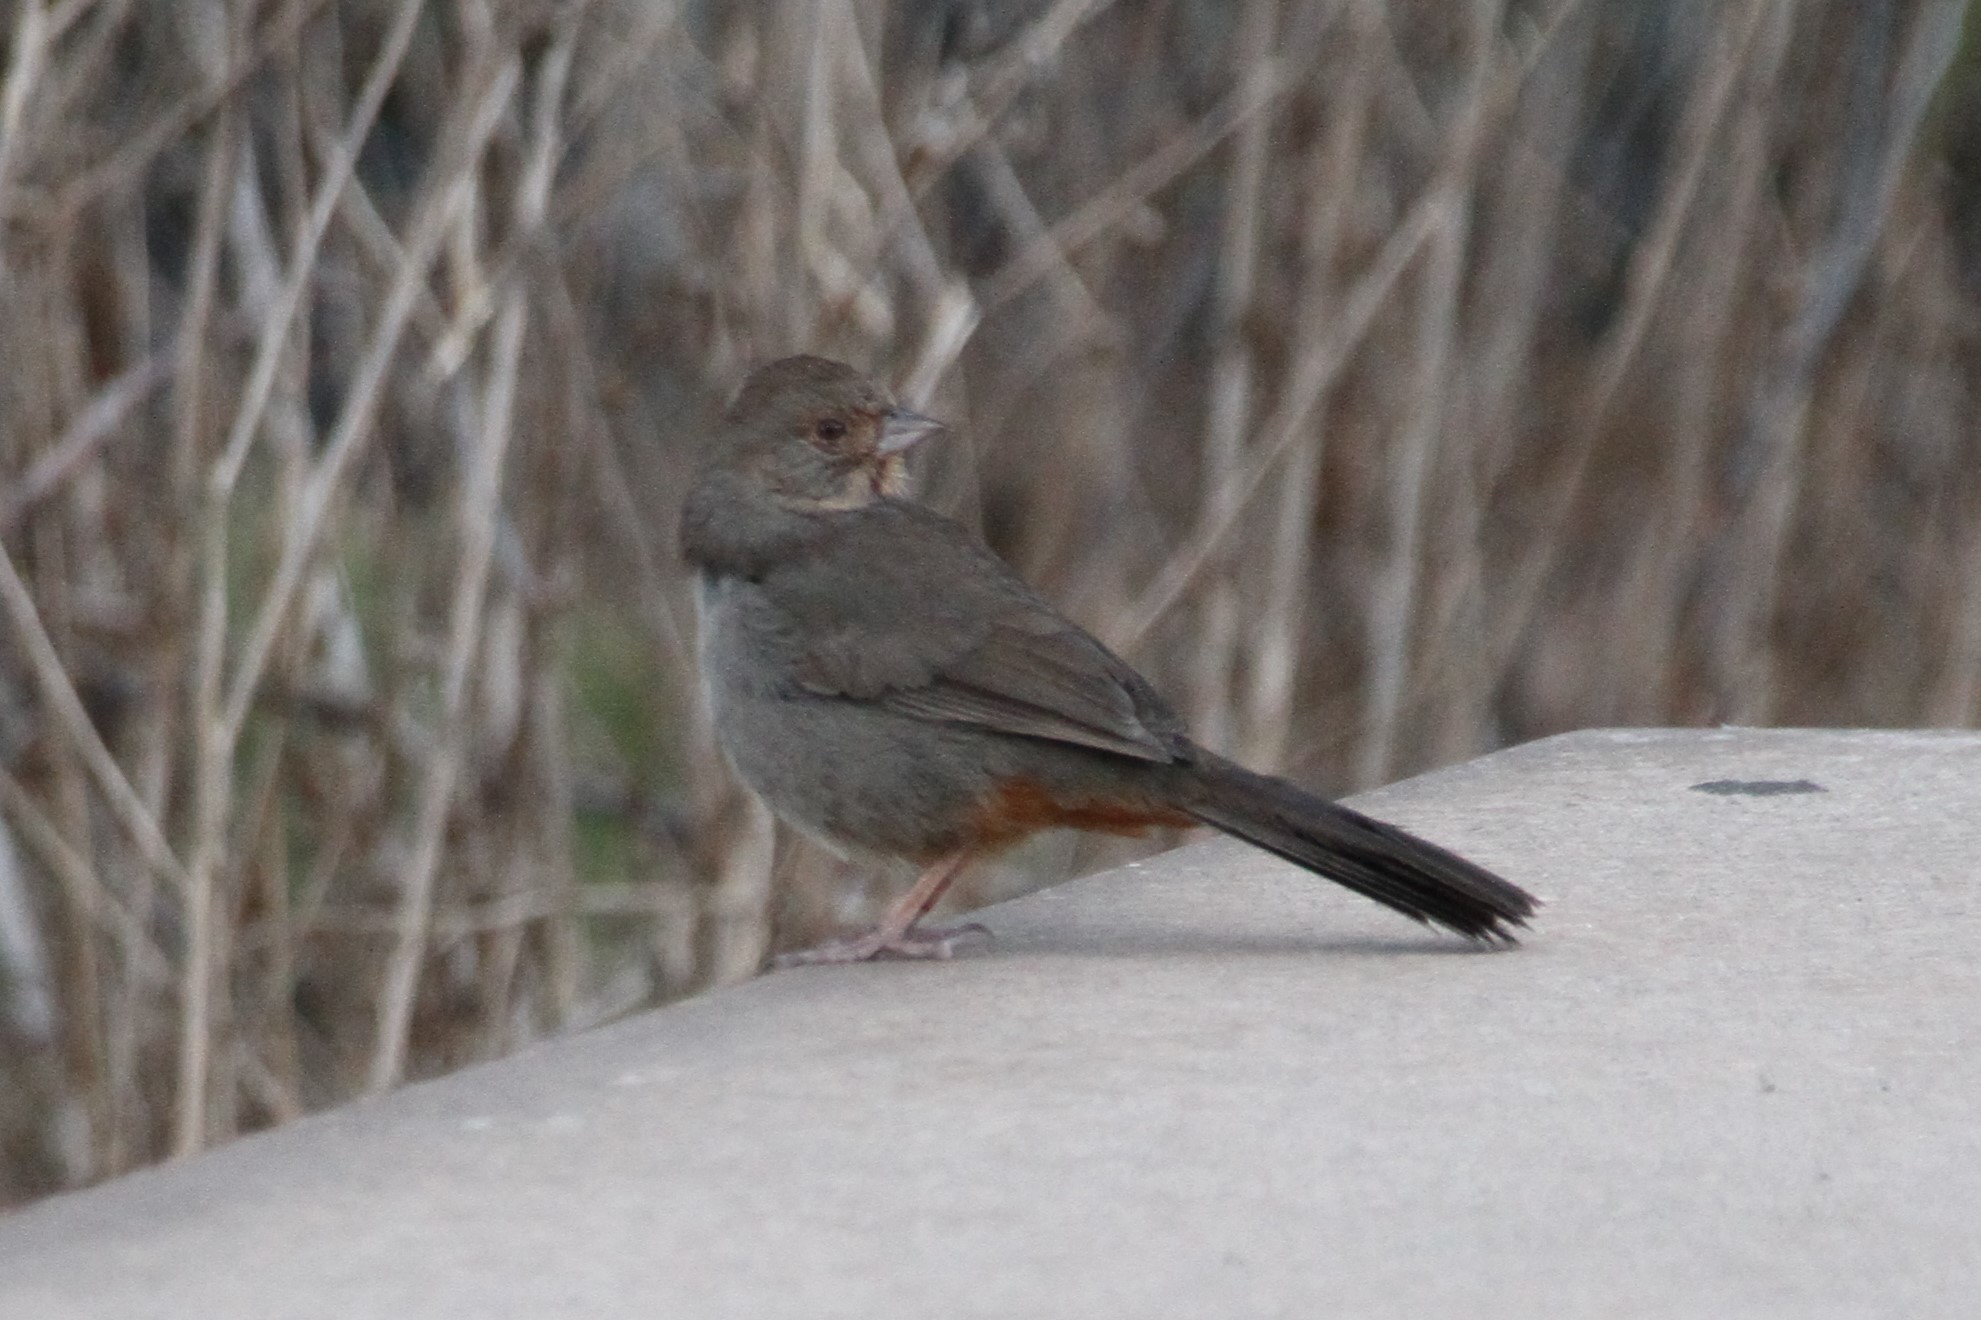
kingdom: Animalia
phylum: Chordata
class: Aves
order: Passeriformes
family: Passerellidae
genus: Melozone
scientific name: Melozone crissalis
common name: California towhee
